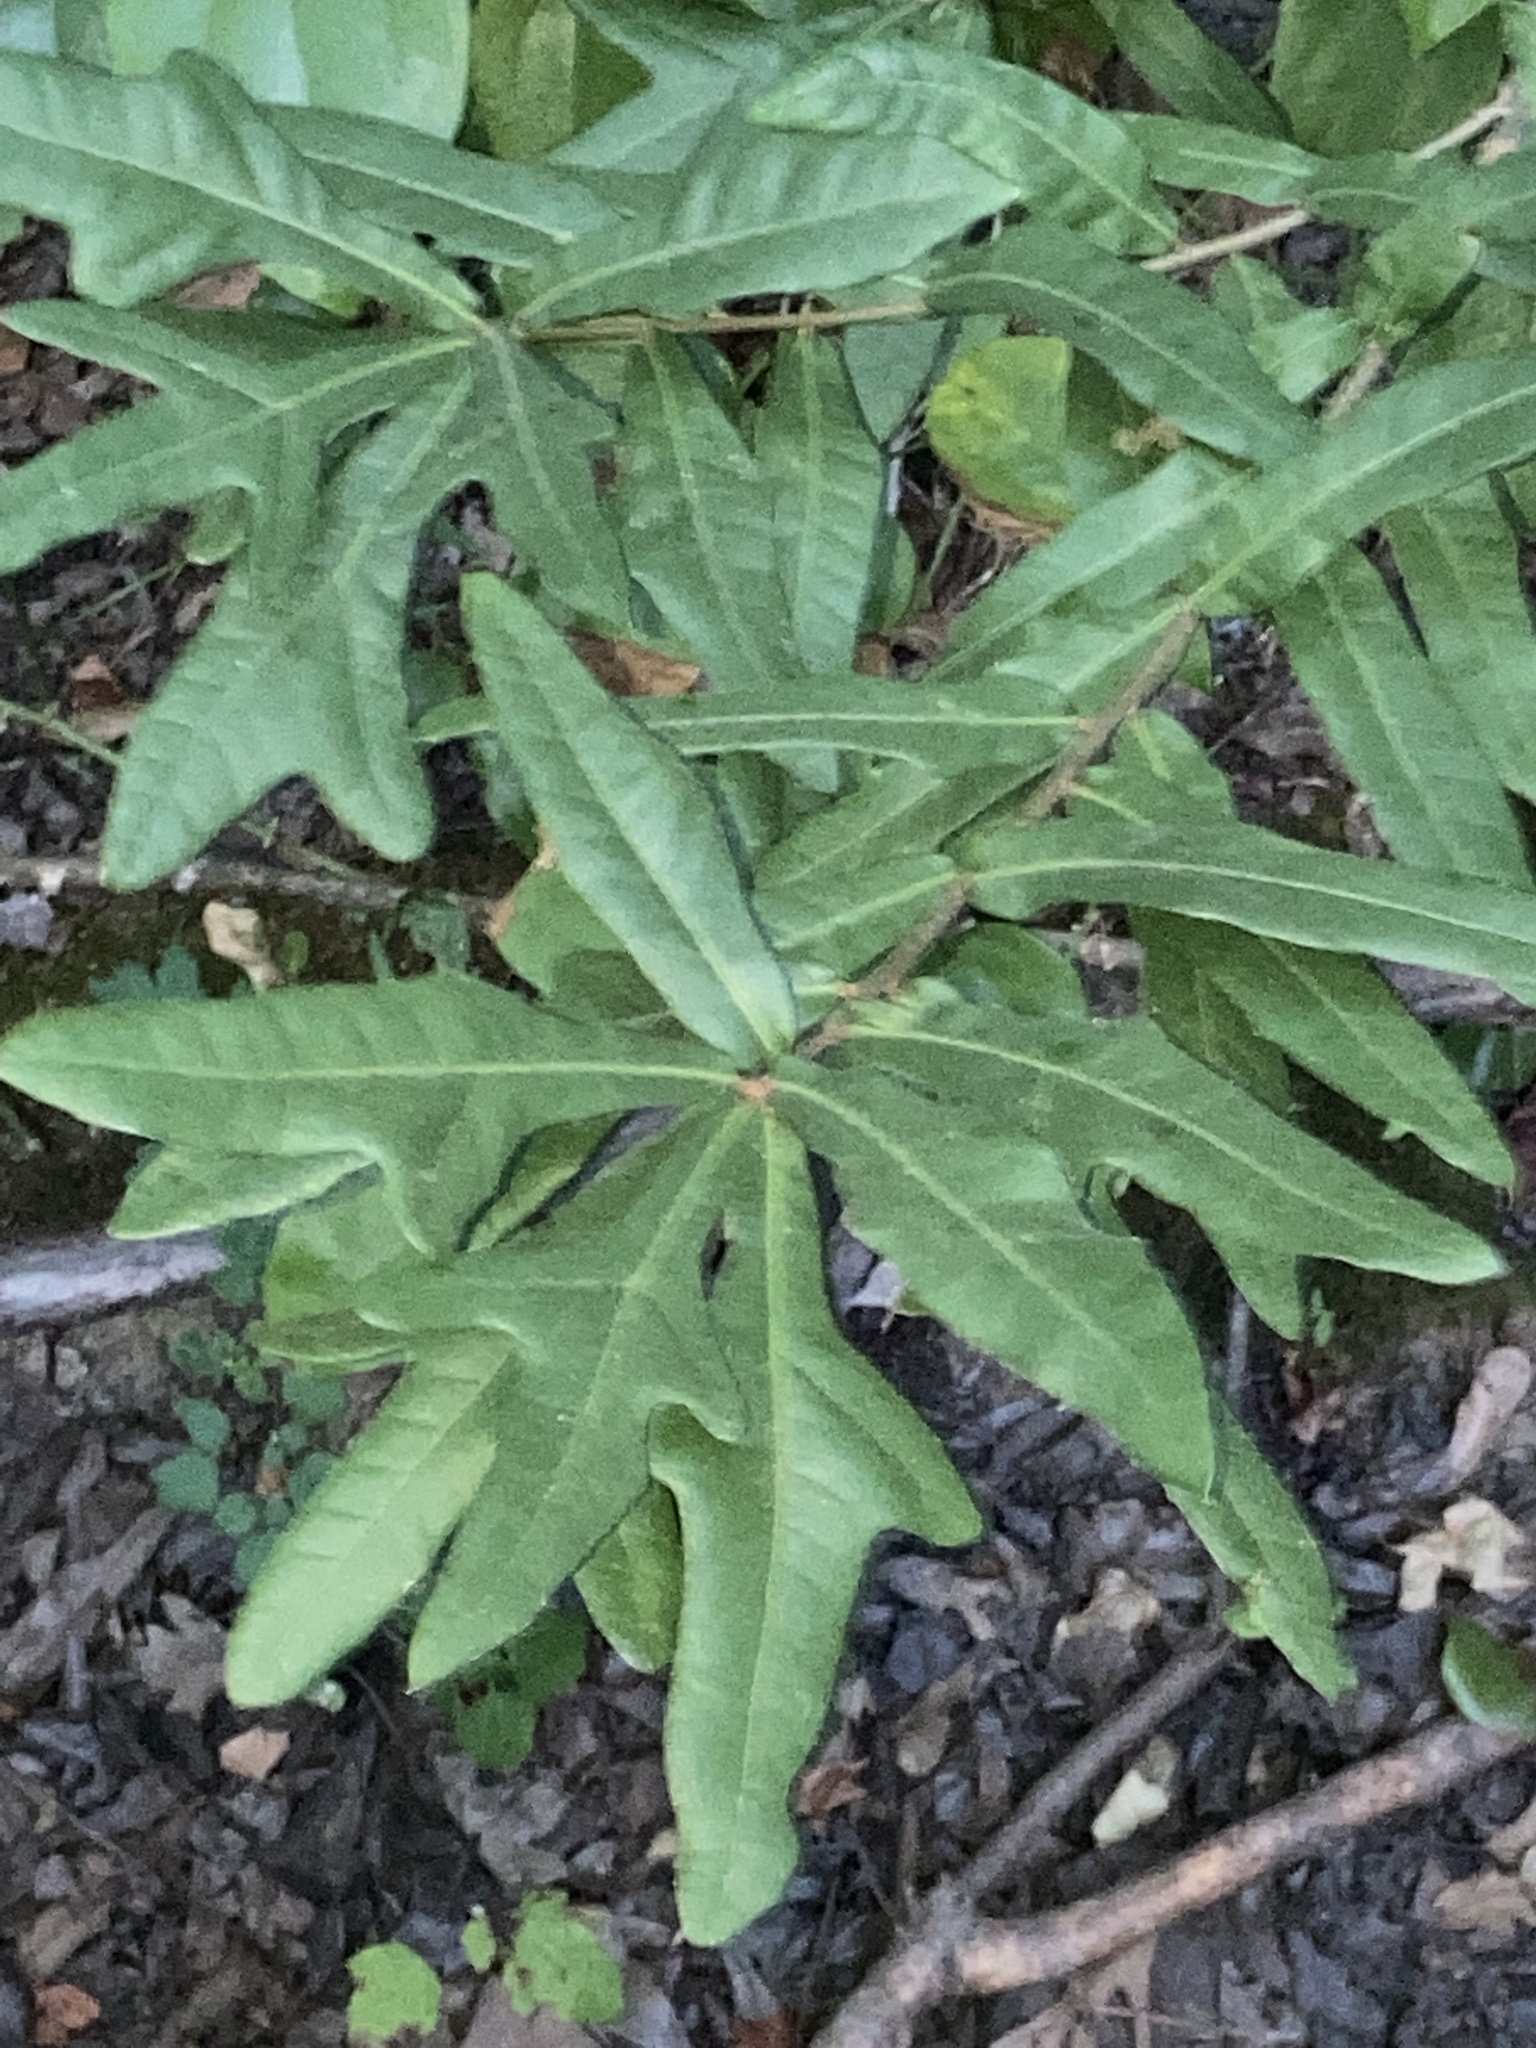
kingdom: Plantae
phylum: Tracheophyta
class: Magnoliopsida
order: Fagales
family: Fagaceae
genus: Quercus
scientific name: Quercus nigra
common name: Water oak
